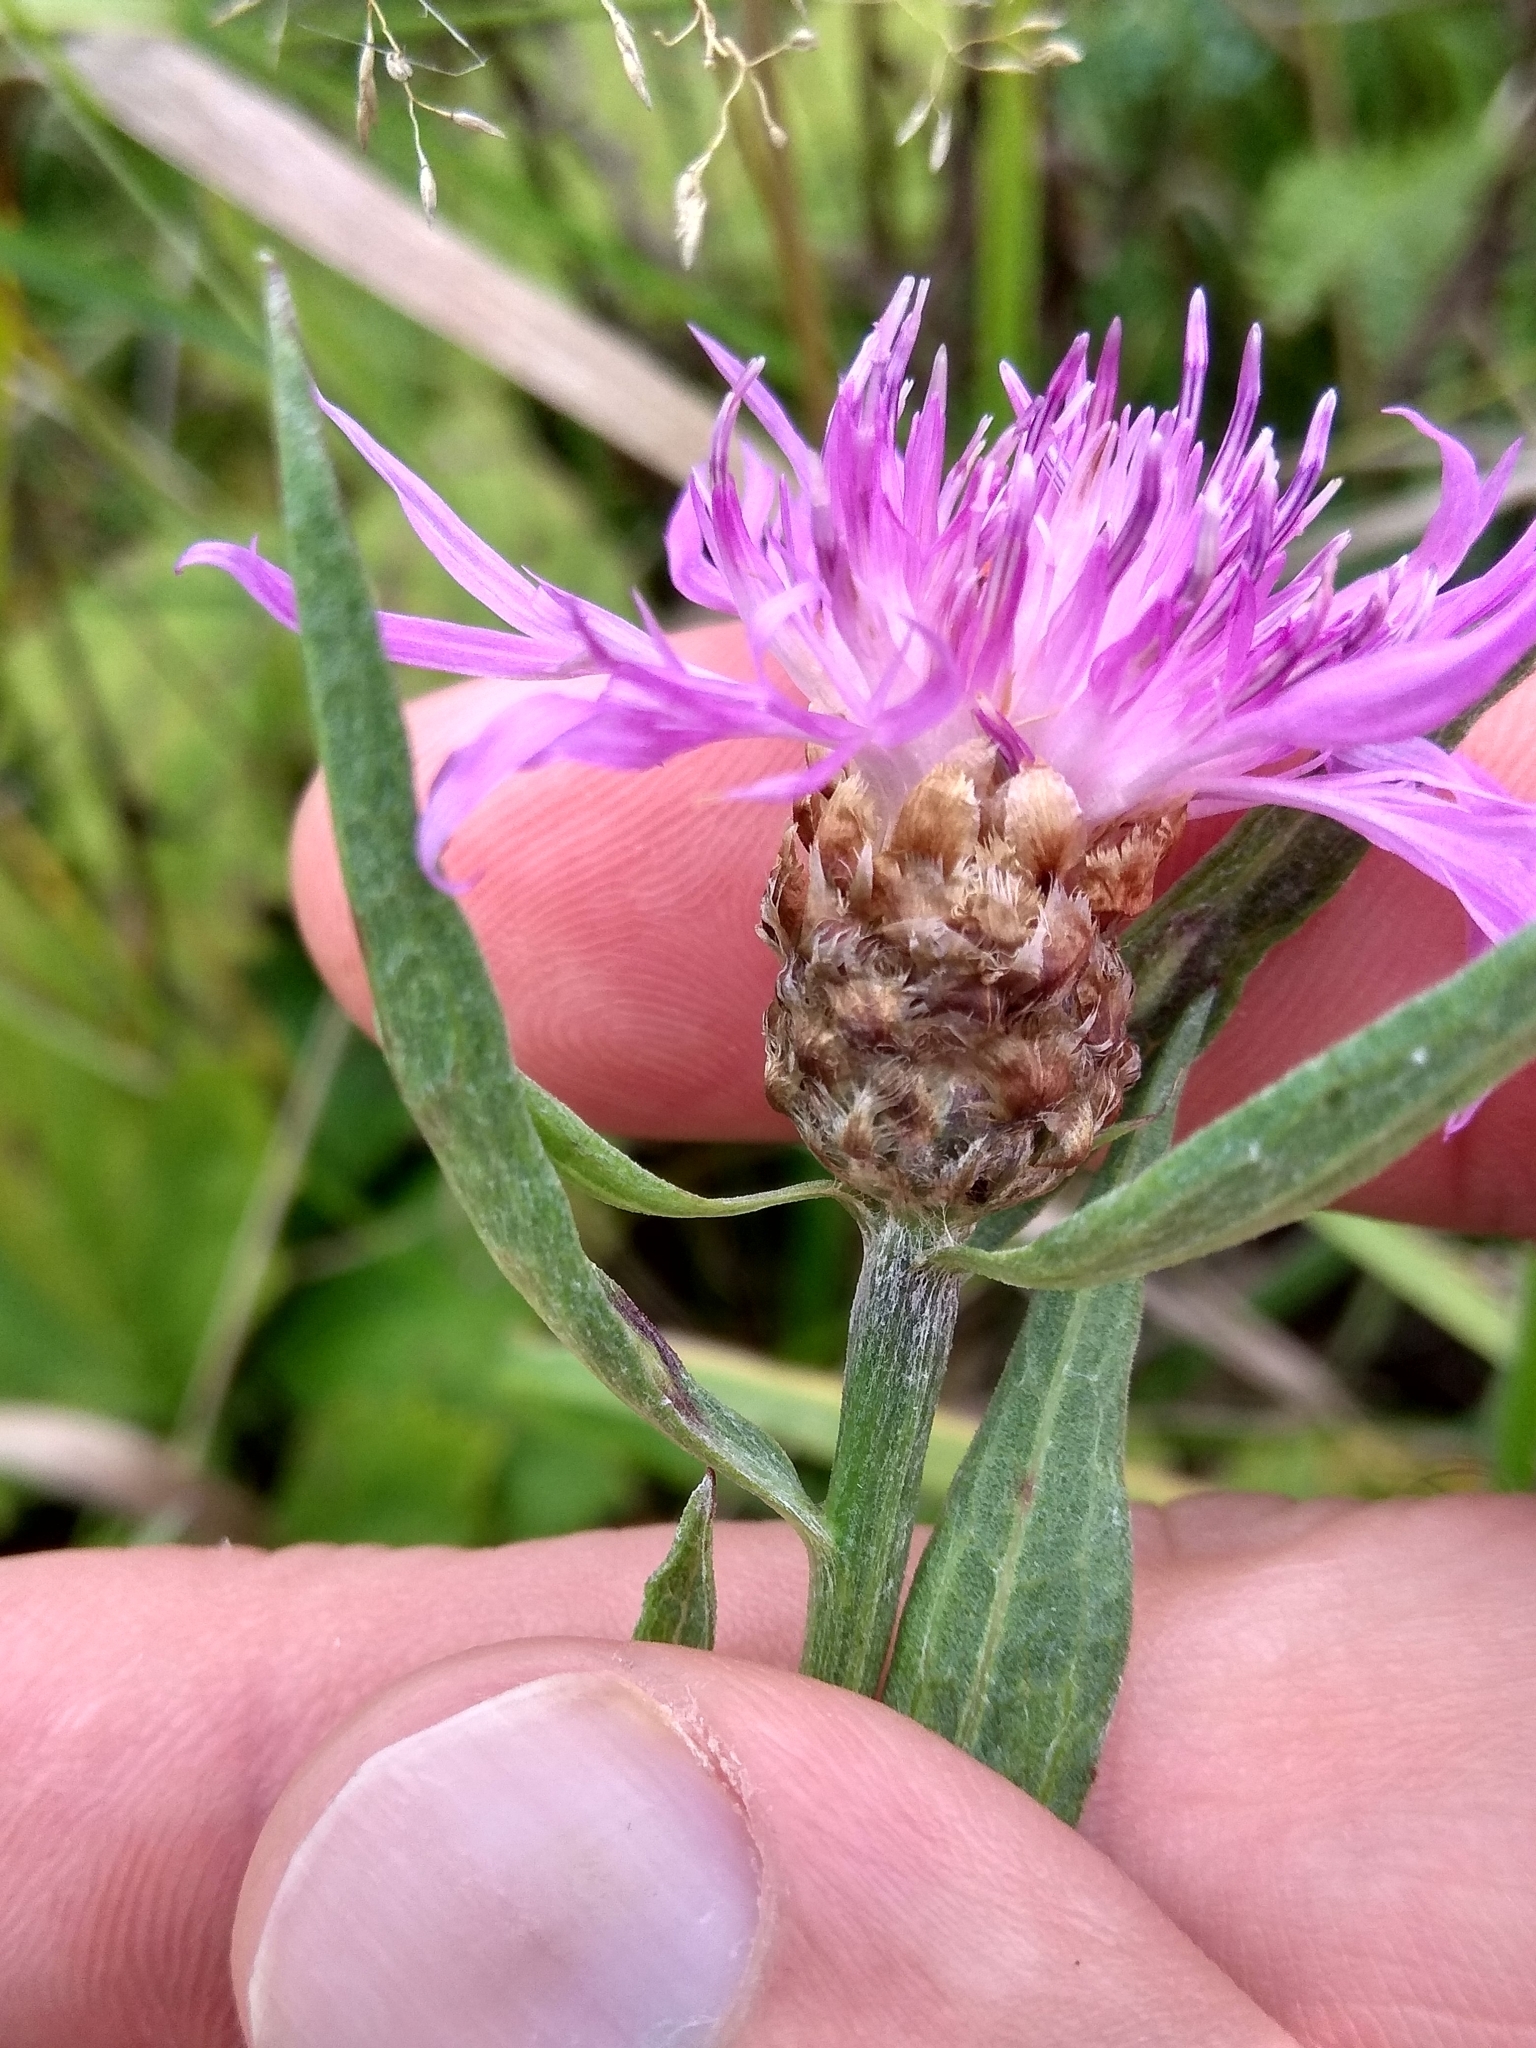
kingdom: Plantae
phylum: Tracheophyta
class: Magnoliopsida
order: Asterales
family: Asteraceae
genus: Centaurea
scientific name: Centaurea jacea
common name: Brown knapweed
